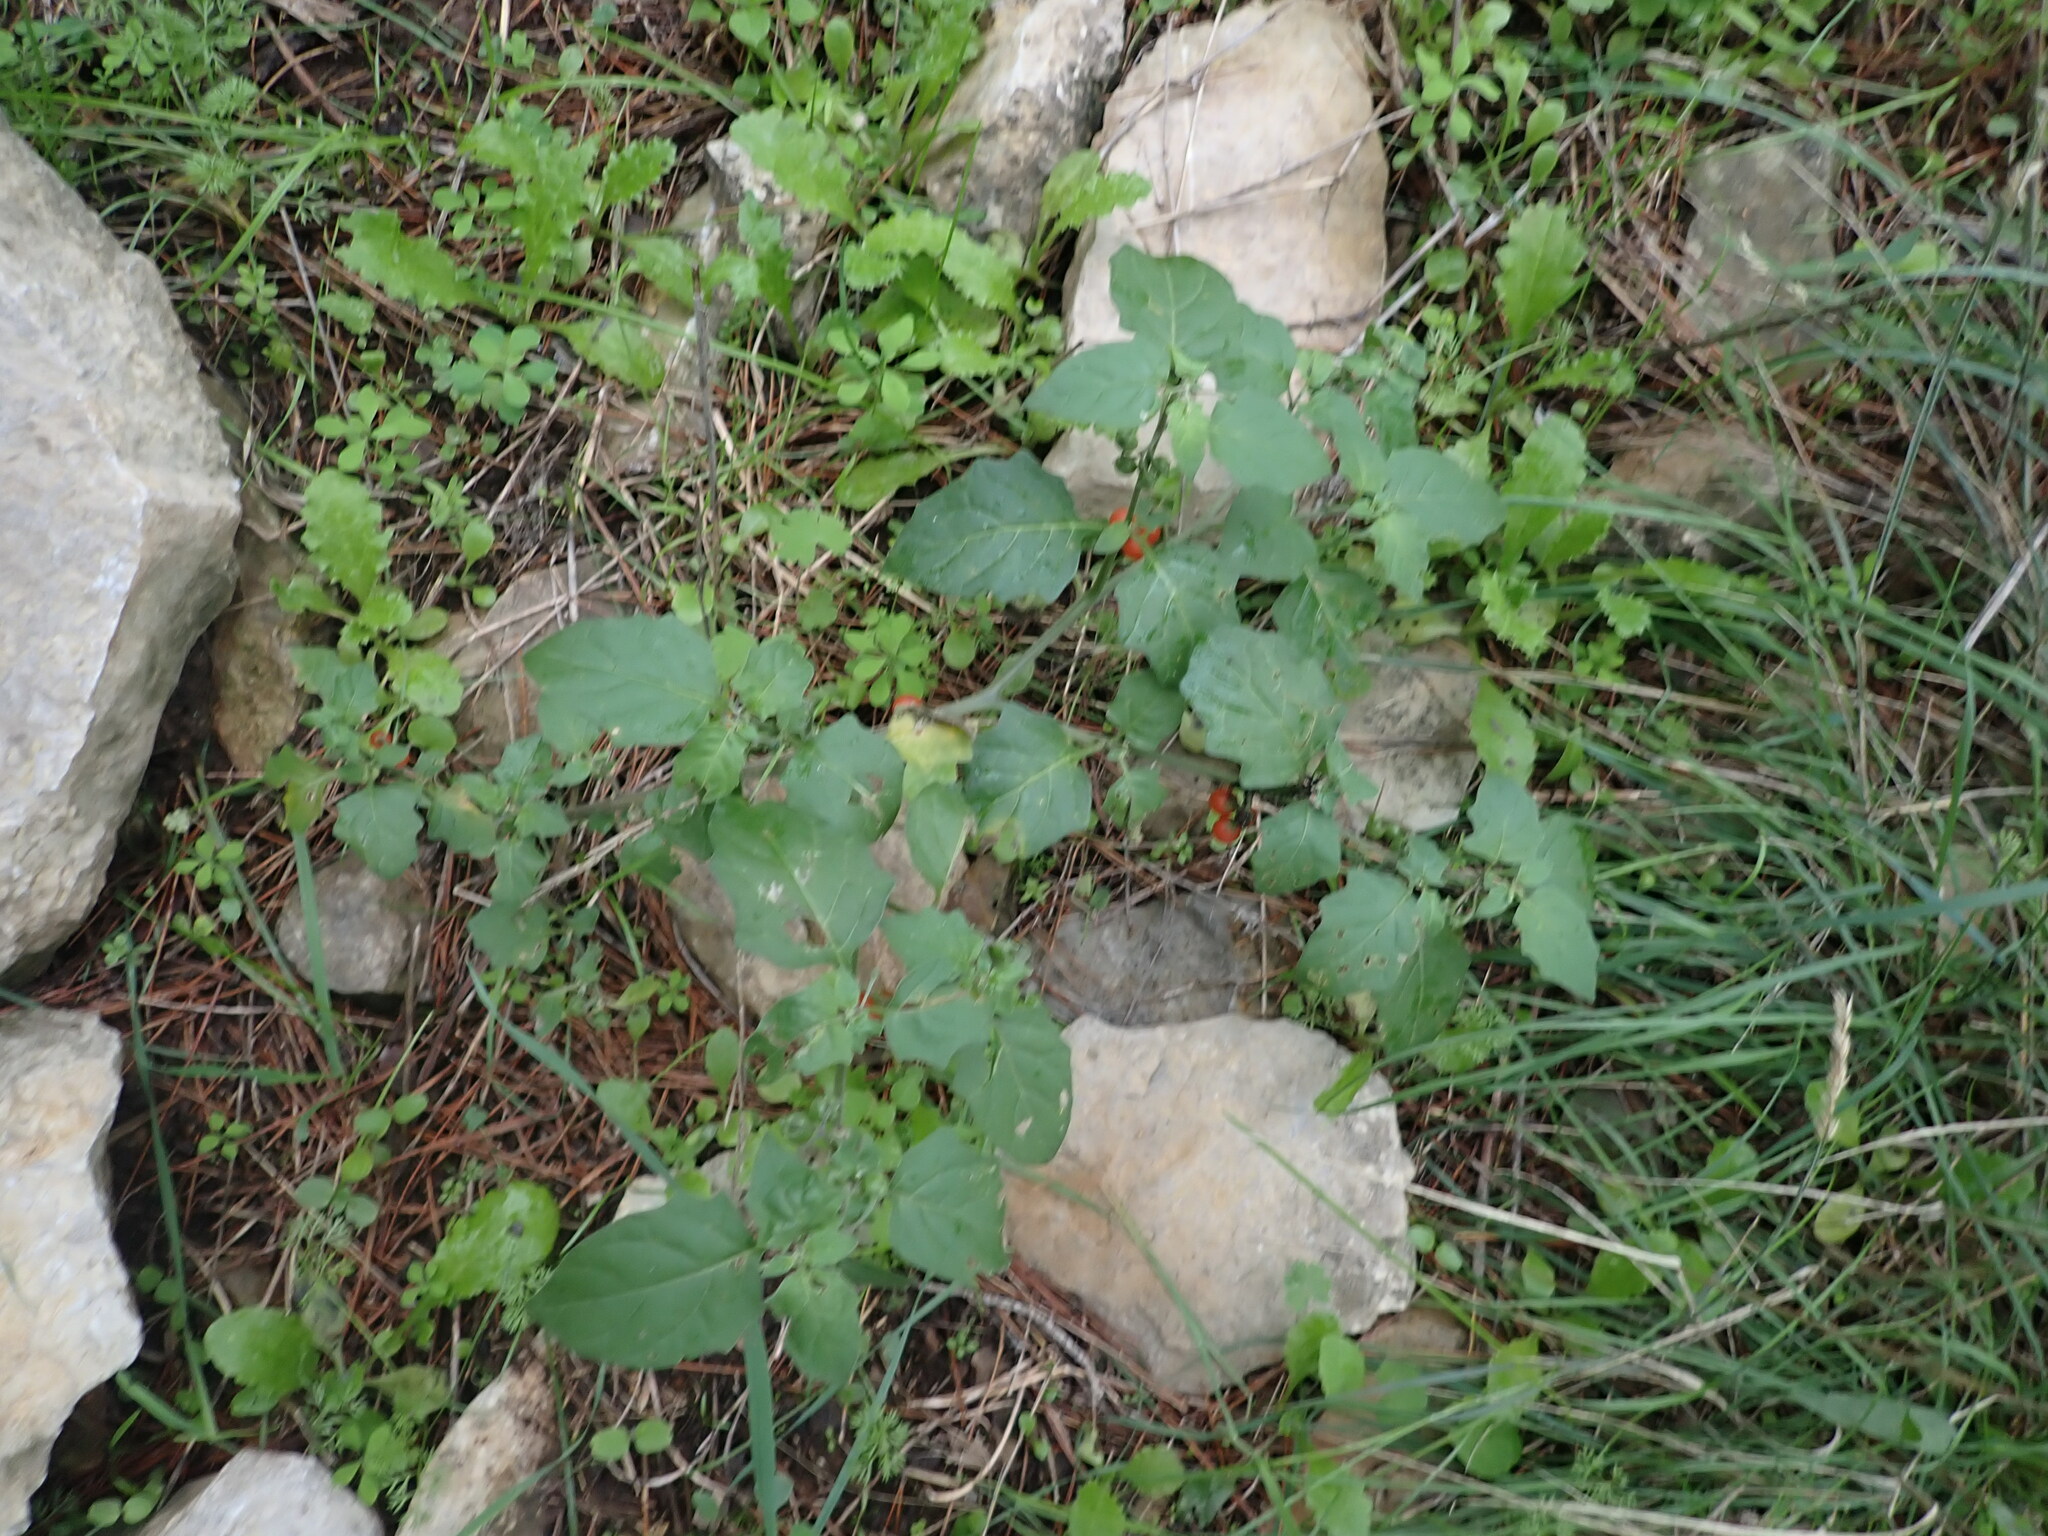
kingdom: Plantae
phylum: Tracheophyta
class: Magnoliopsida
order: Solanales
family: Solanaceae
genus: Solanum
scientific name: Solanum villosum
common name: Red nightshade
